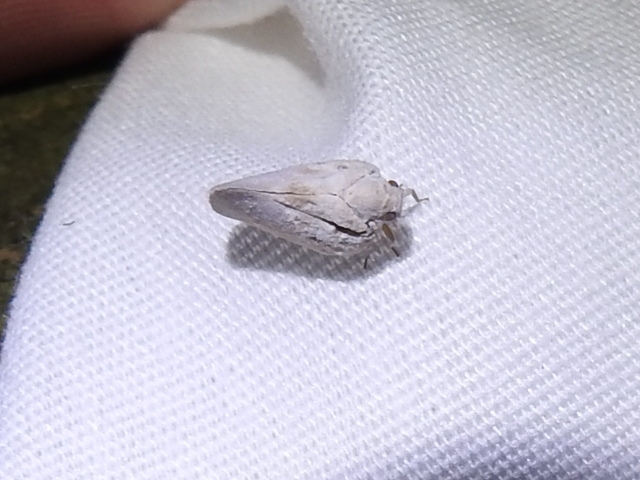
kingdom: Animalia
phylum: Arthropoda
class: Insecta
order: Hemiptera
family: Flatidae
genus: Metcalfa
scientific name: Metcalfa pruinosa
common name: Citrus flatid planthopper
